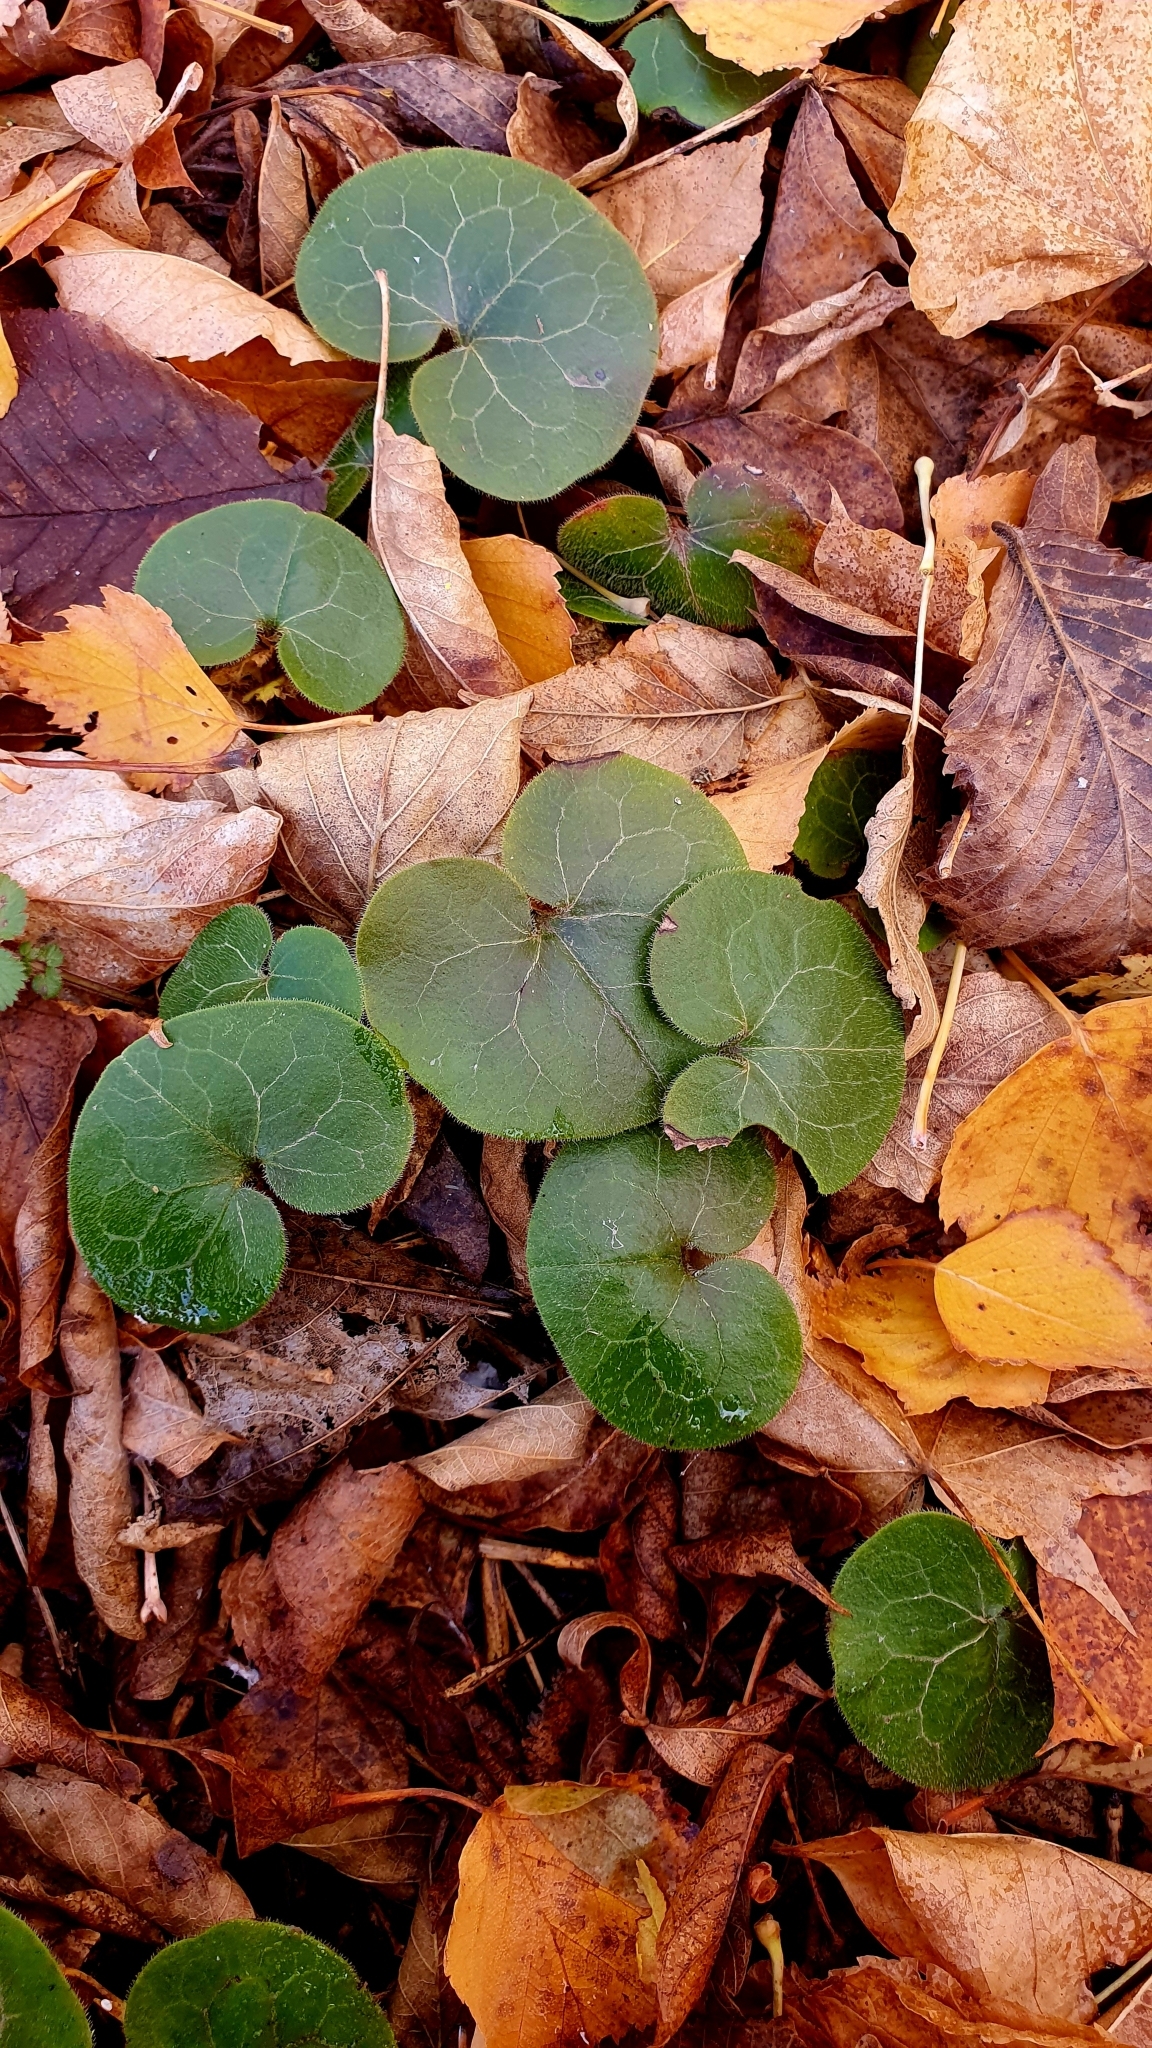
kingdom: Plantae
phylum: Tracheophyta
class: Magnoliopsida
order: Piperales
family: Aristolochiaceae
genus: Asarum
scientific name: Asarum europaeum
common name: Asarabacca
